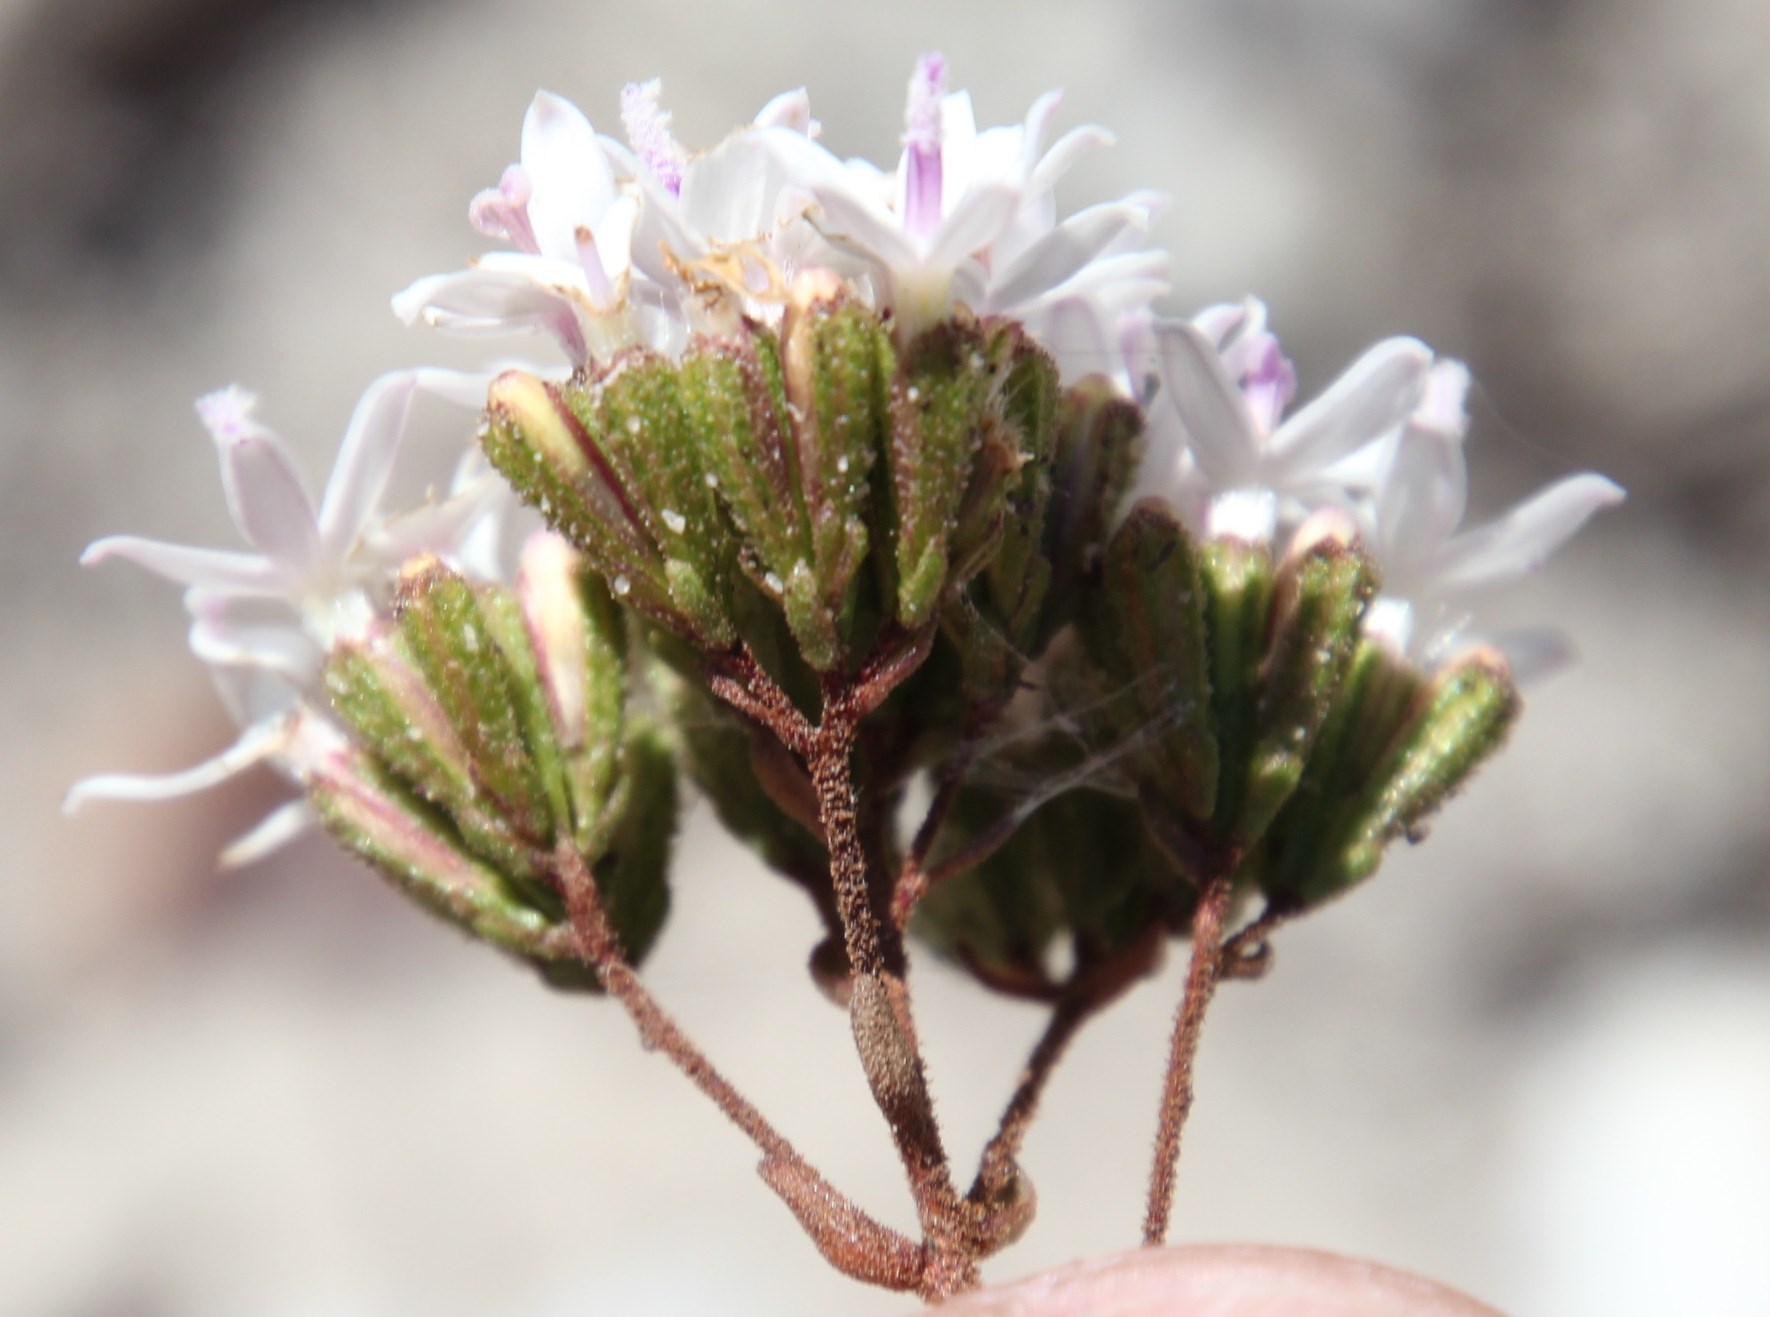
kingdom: Plantae
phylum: Tracheophyta
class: Magnoliopsida
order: Asterales
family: Asteraceae
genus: Corymbium
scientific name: Corymbium africanum
